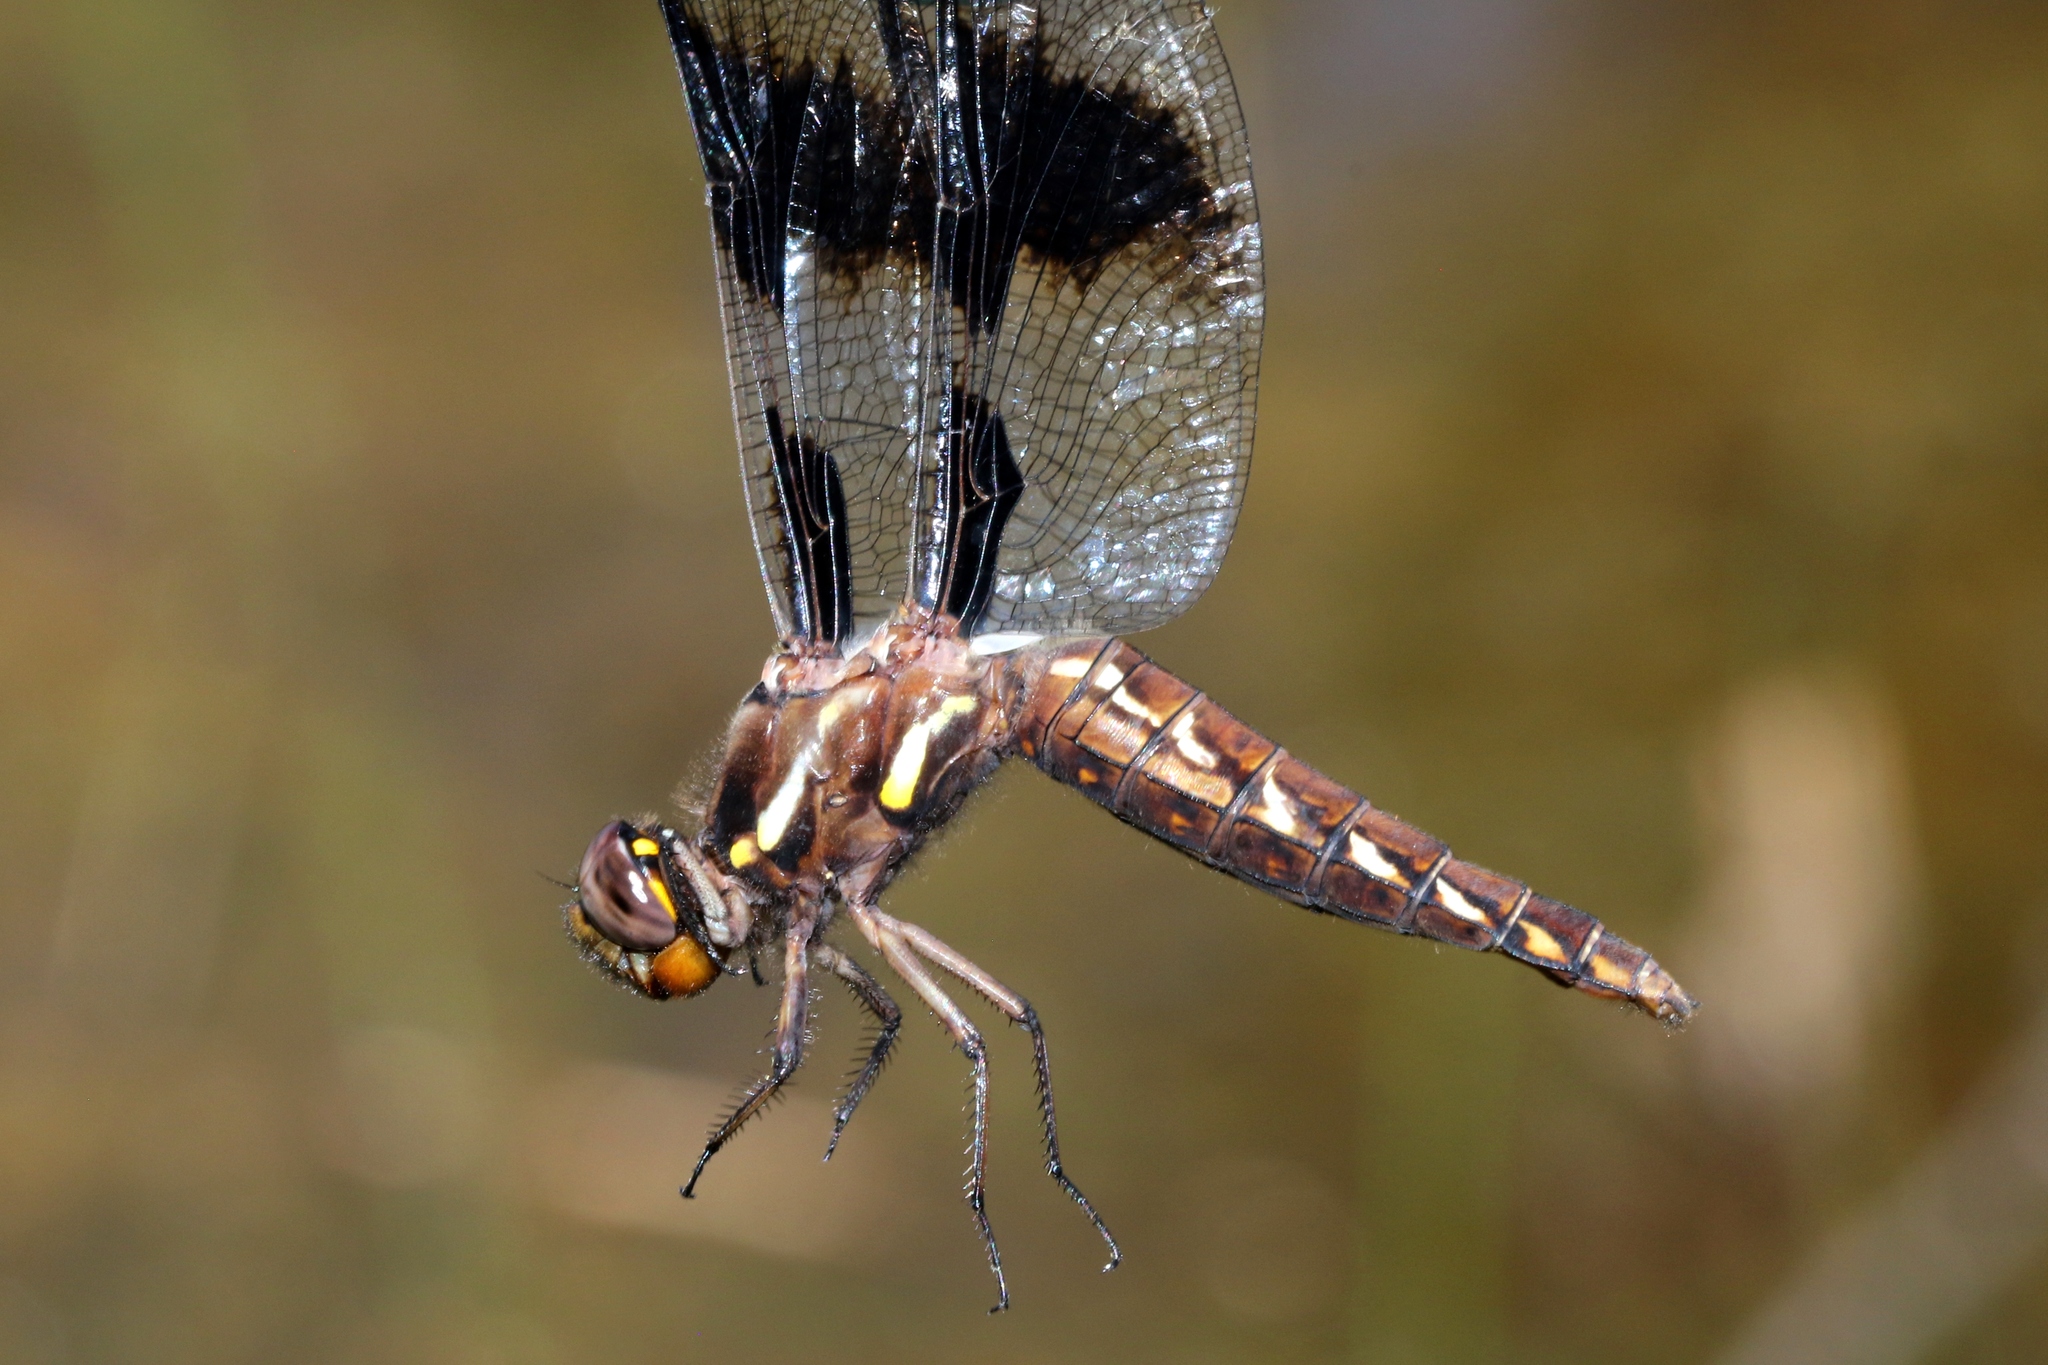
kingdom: Animalia
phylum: Arthropoda
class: Insecta
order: Odonata
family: Libellulidae
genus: Plathemis
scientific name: Plathemis lydia
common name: Common whitetail
